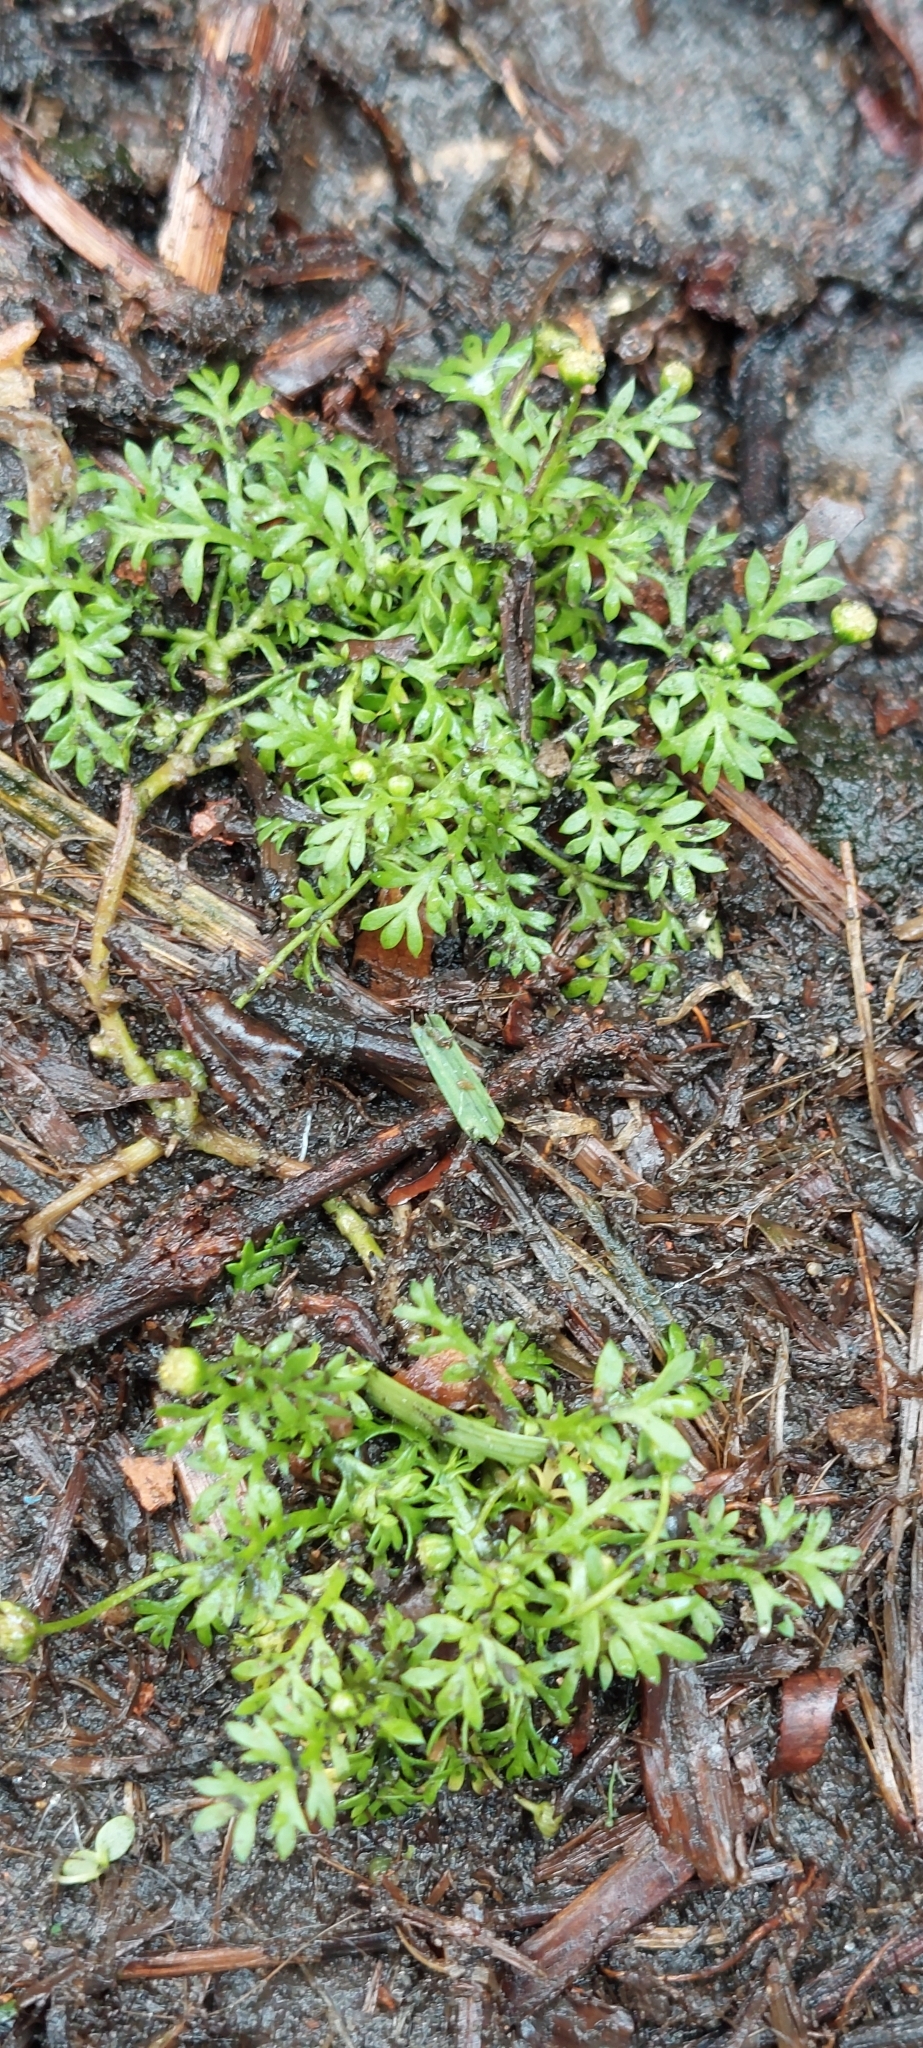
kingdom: Plantae
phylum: Tracheophyta
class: Magnoliopsida
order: Asterales
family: Asteraceae
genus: Cotula
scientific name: Cotula australis
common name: Australian waterbuttons
